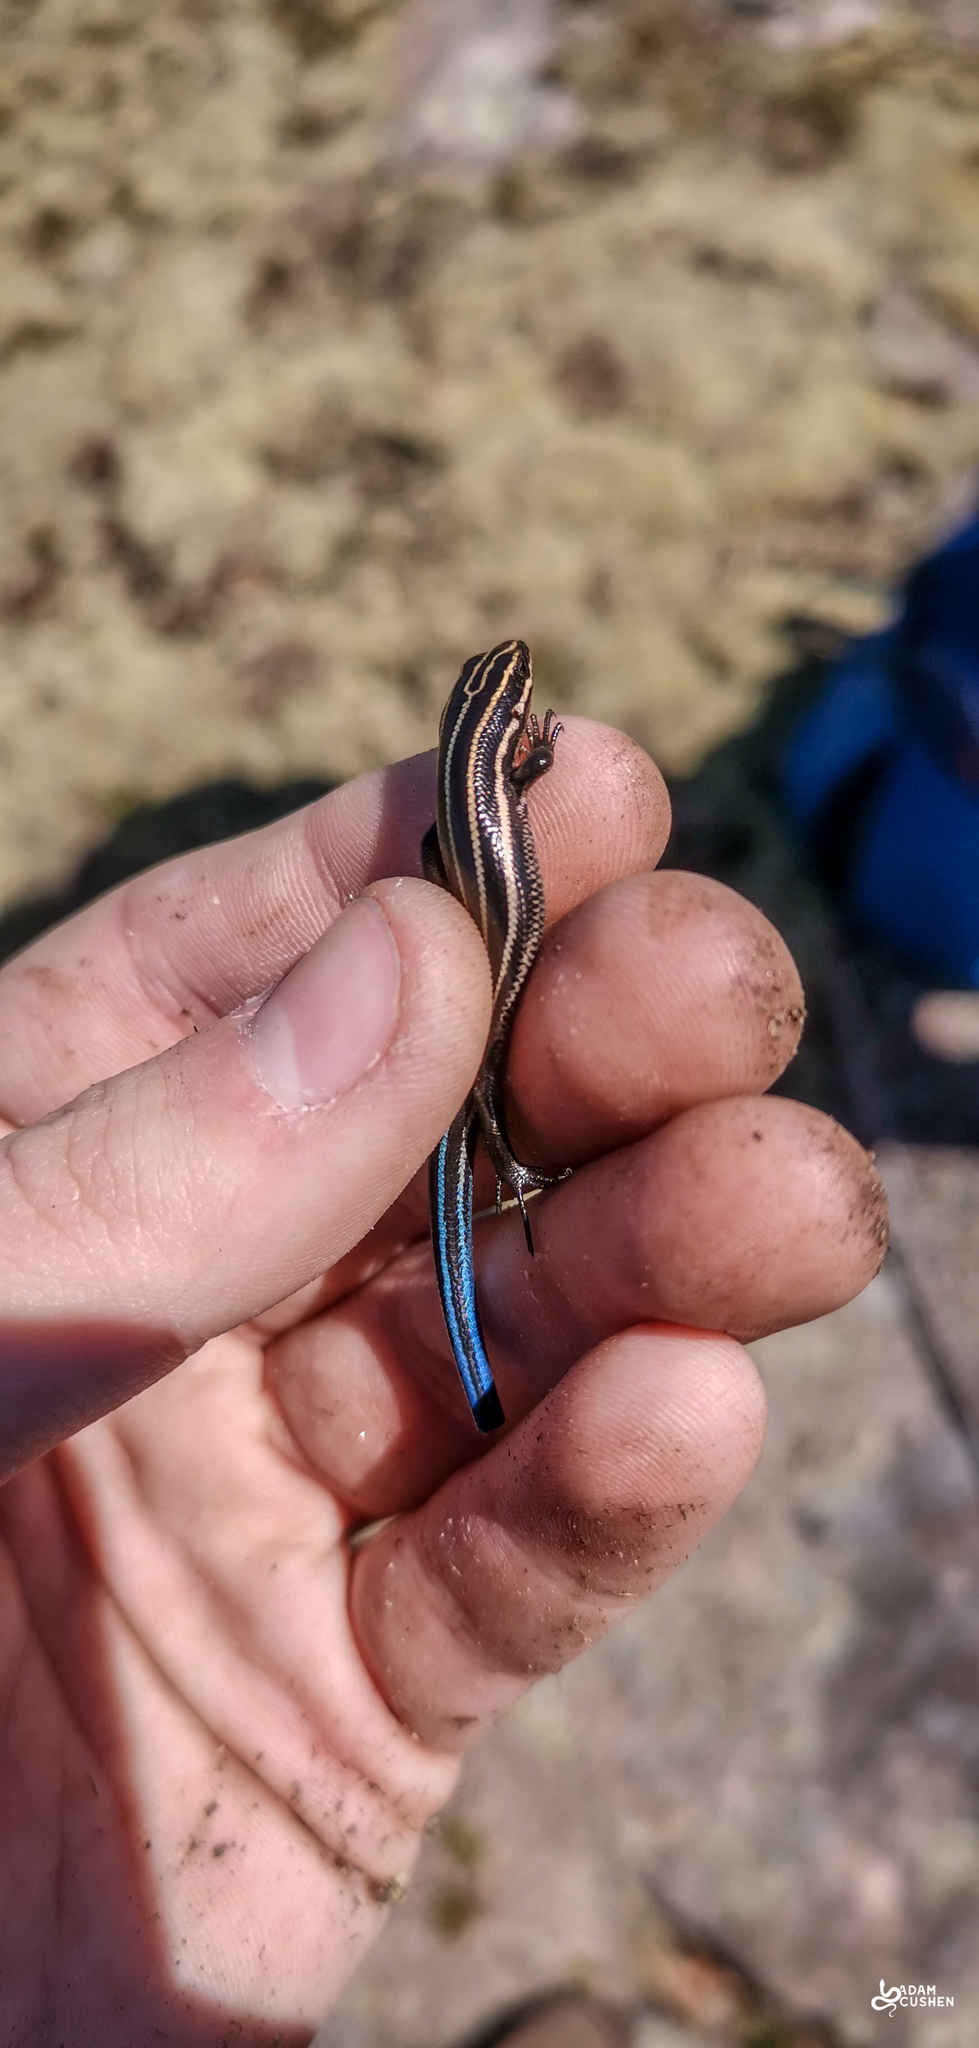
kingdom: Animalia
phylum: Chordata
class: Squamata
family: Scincidae
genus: Plestiodon
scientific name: Plestiodon fasciatus
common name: Five-lined skink
